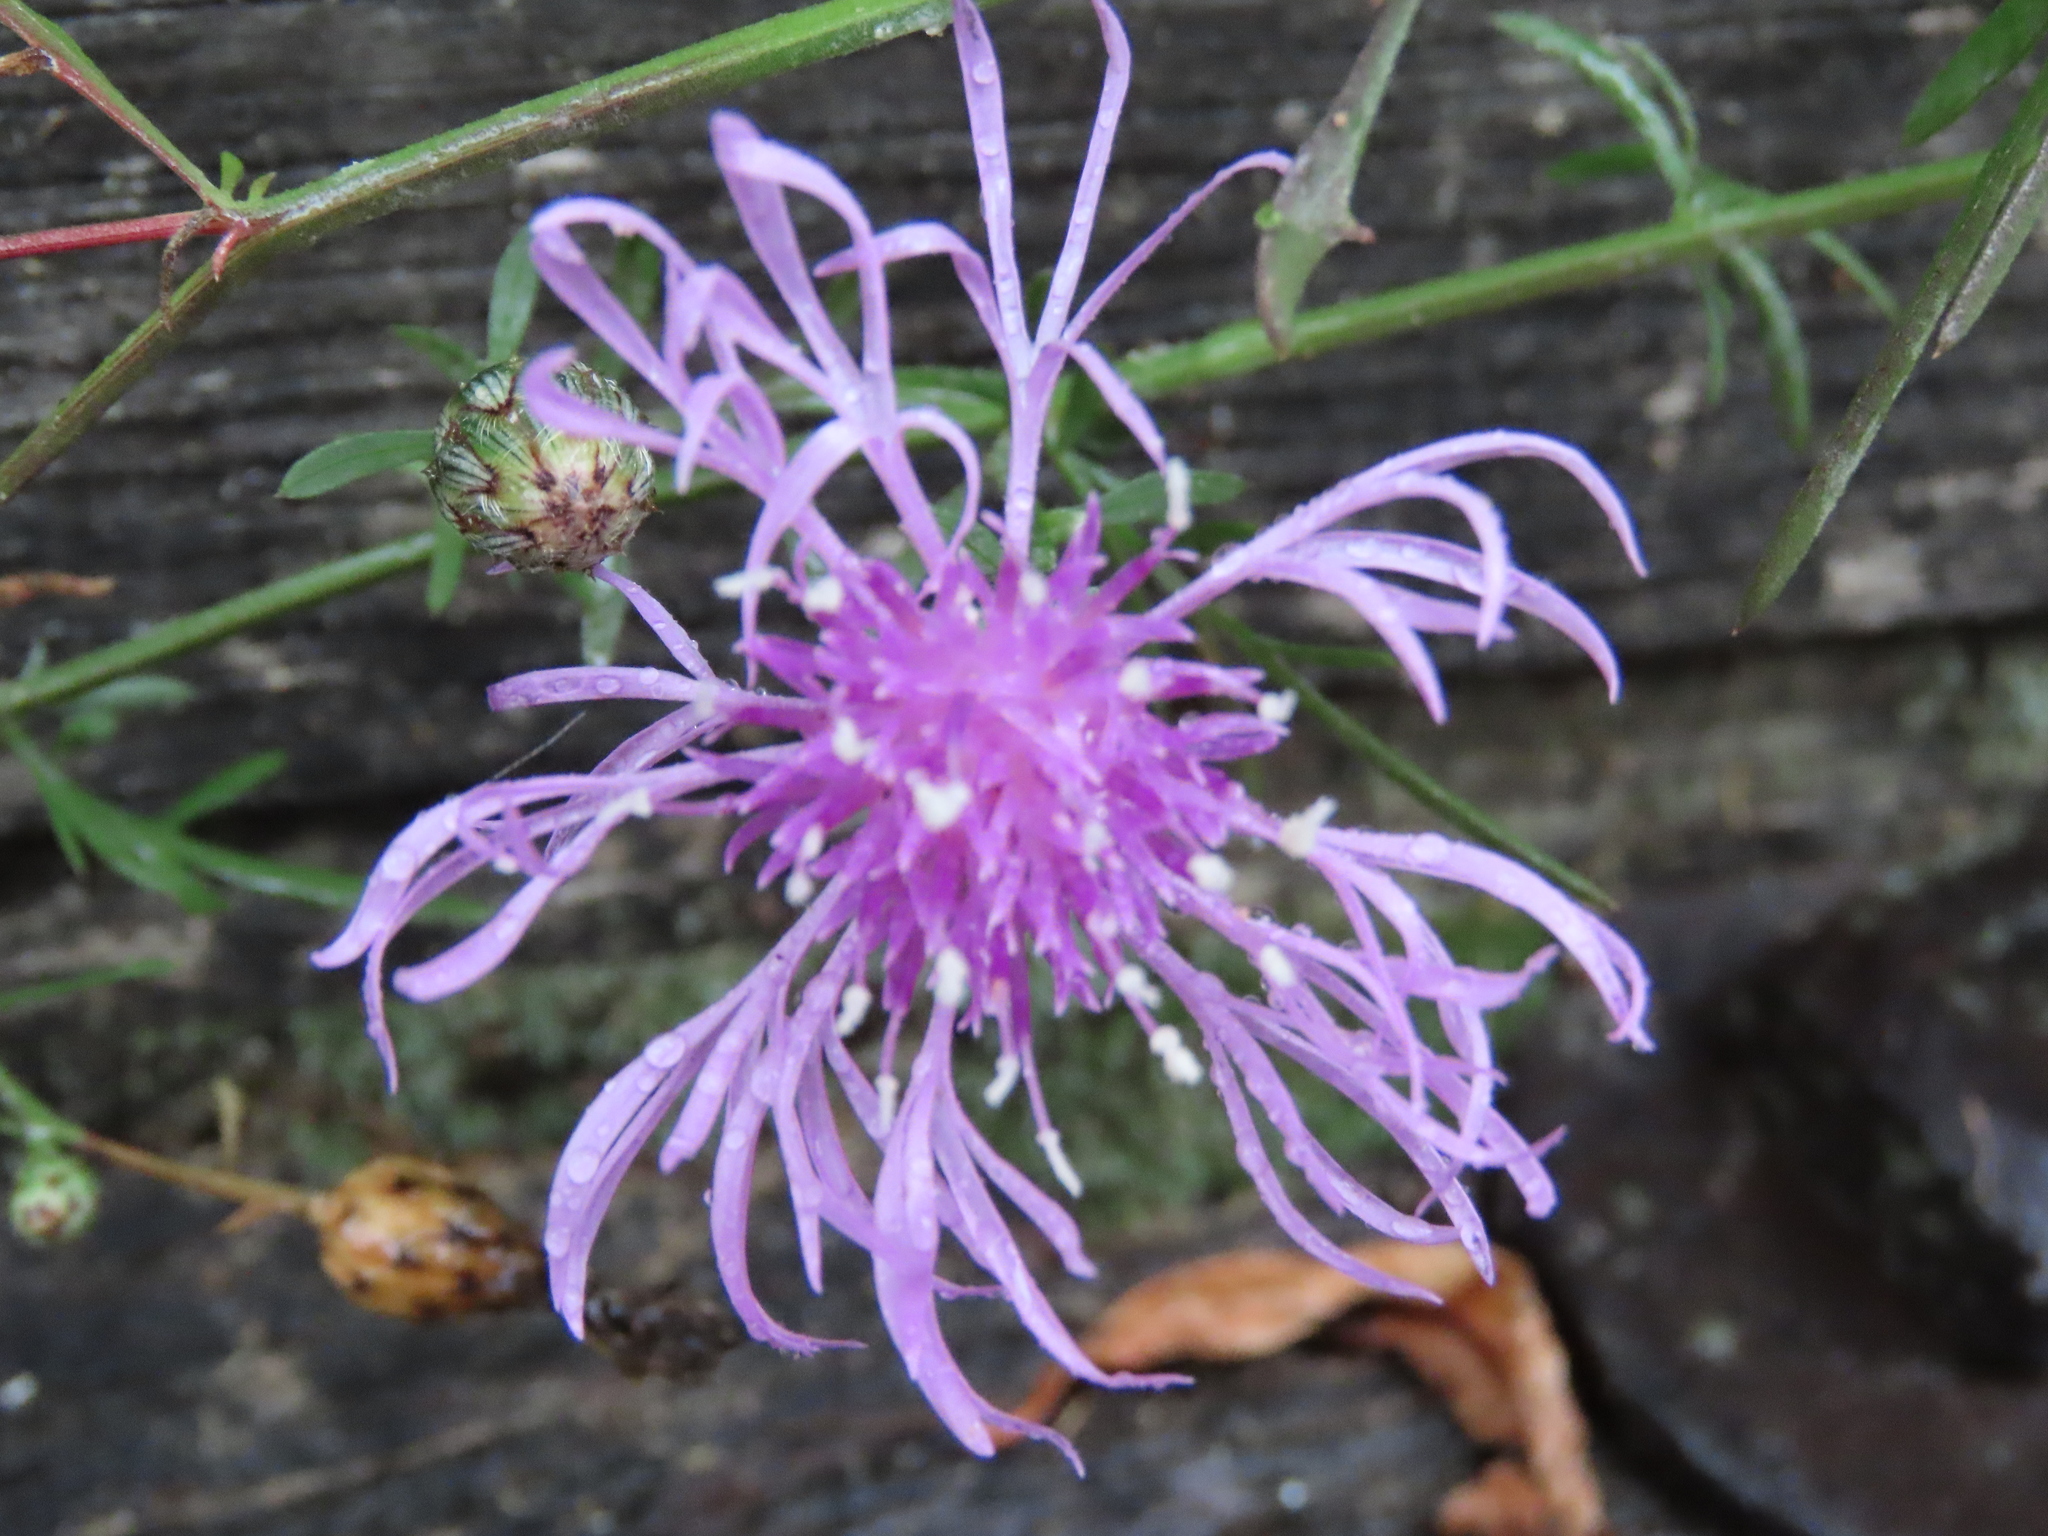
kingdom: Plantae
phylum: Tracheophyta
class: Magnoliopsida
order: Asterales
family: Asteraceae
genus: Centaurea
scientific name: Centaurea stoebe
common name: Spotted knapweed
